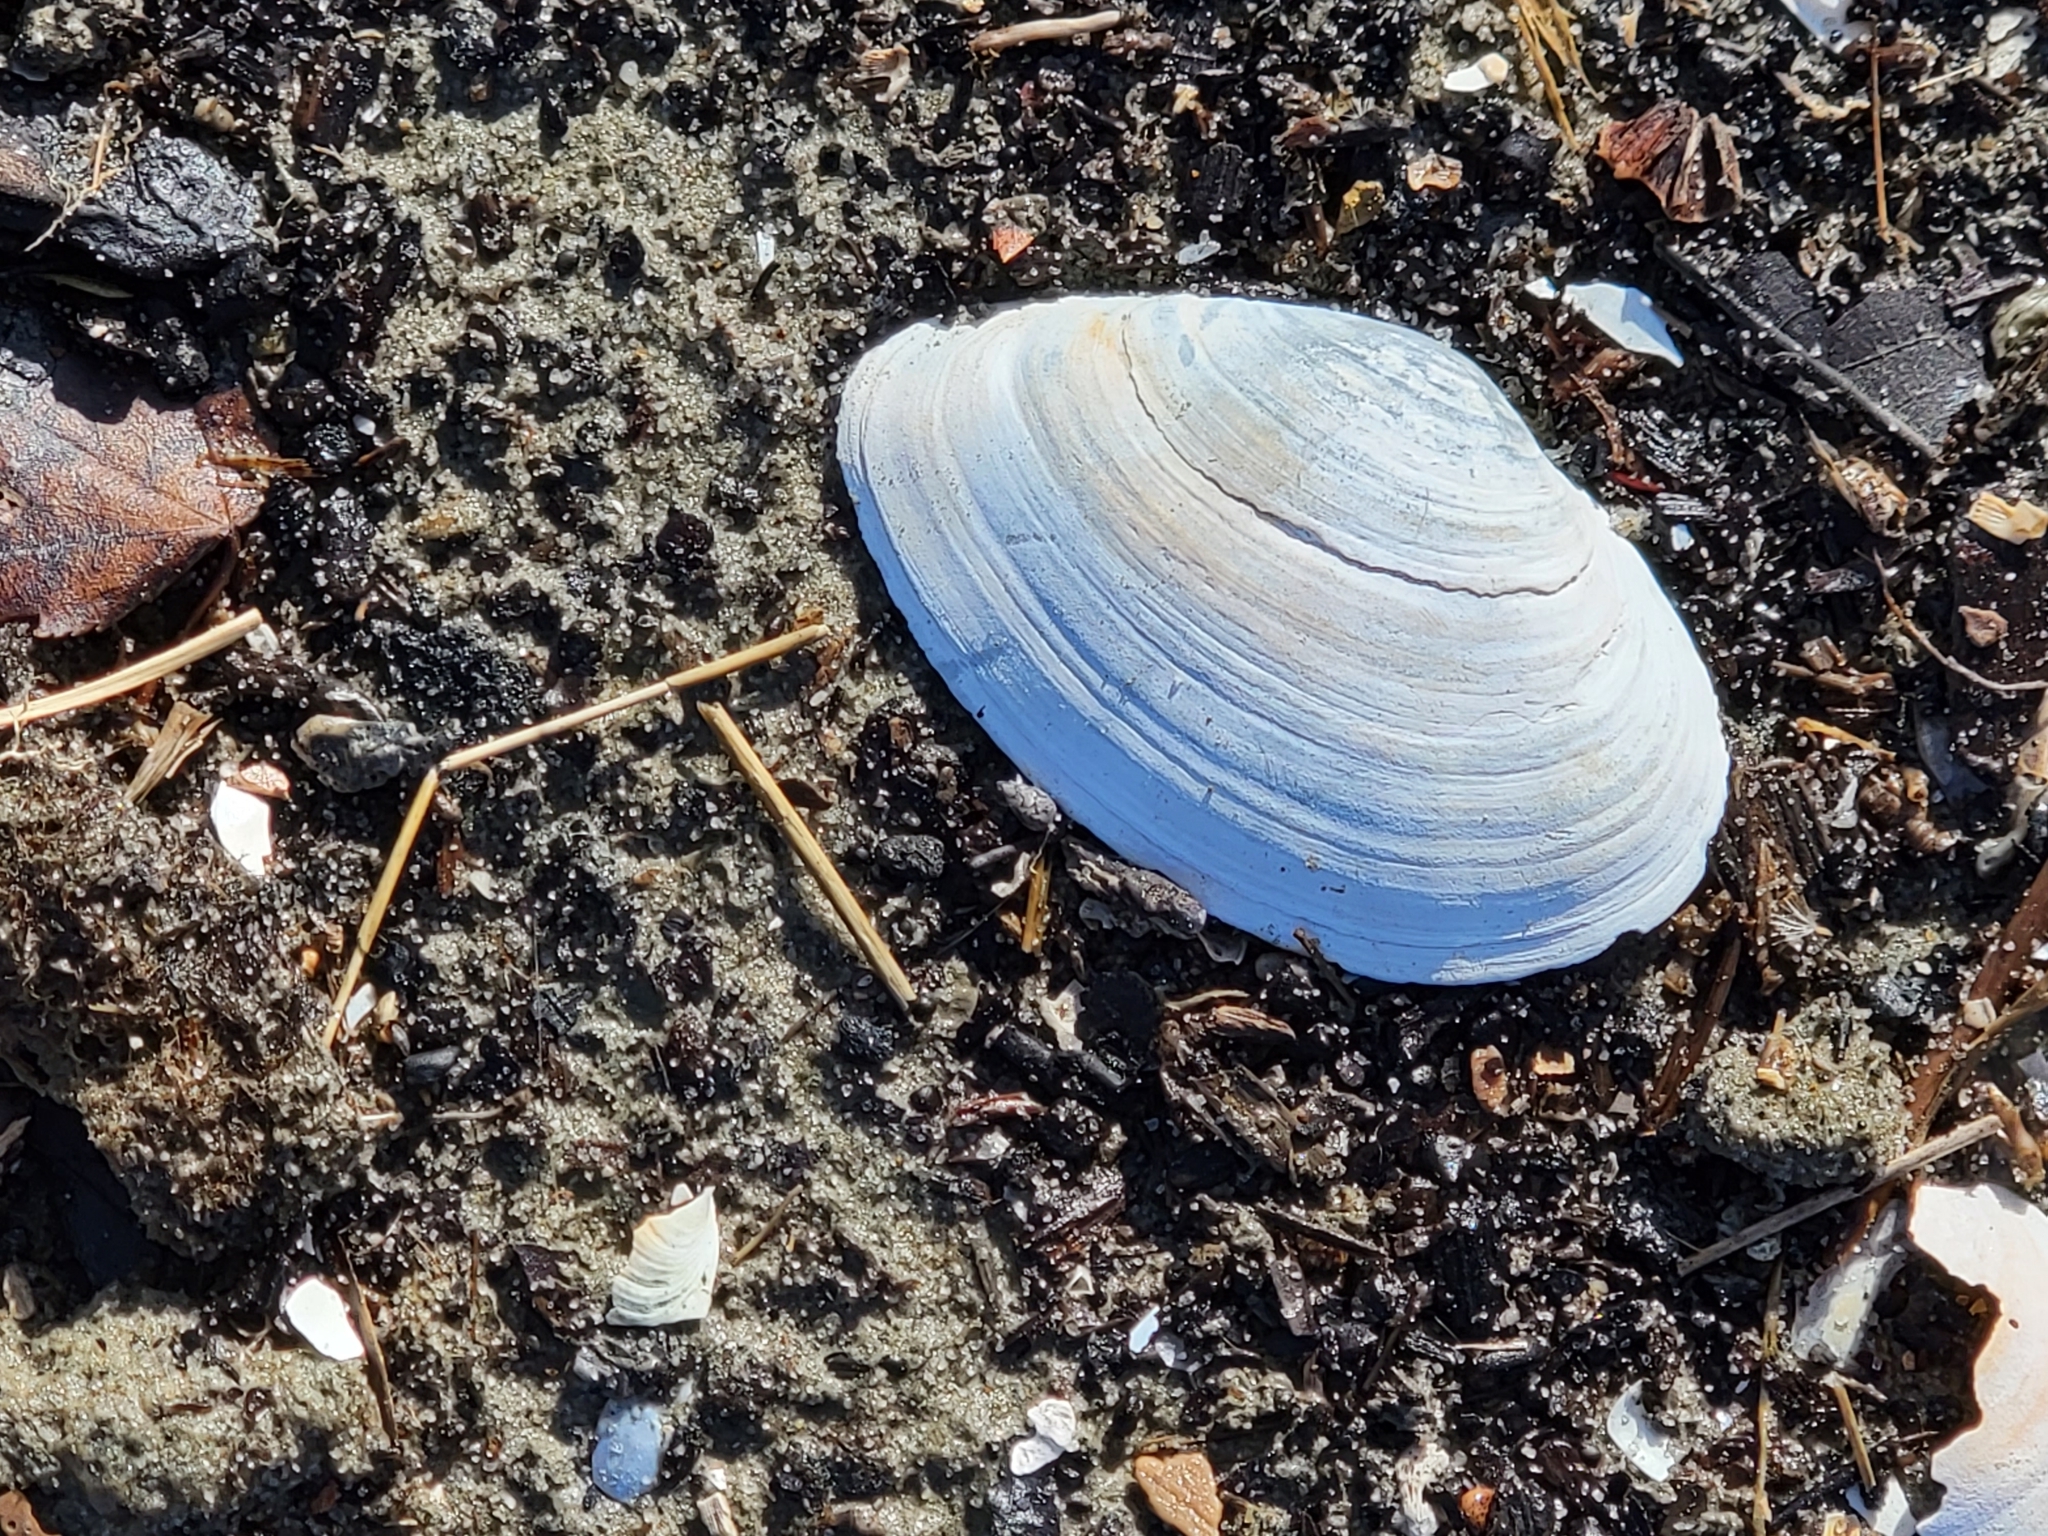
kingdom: Animalia
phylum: Mollusca
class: Bivalvia
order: Myida
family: Myidae
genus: Mya
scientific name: Mya arenaria
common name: Soft-shelled clam
